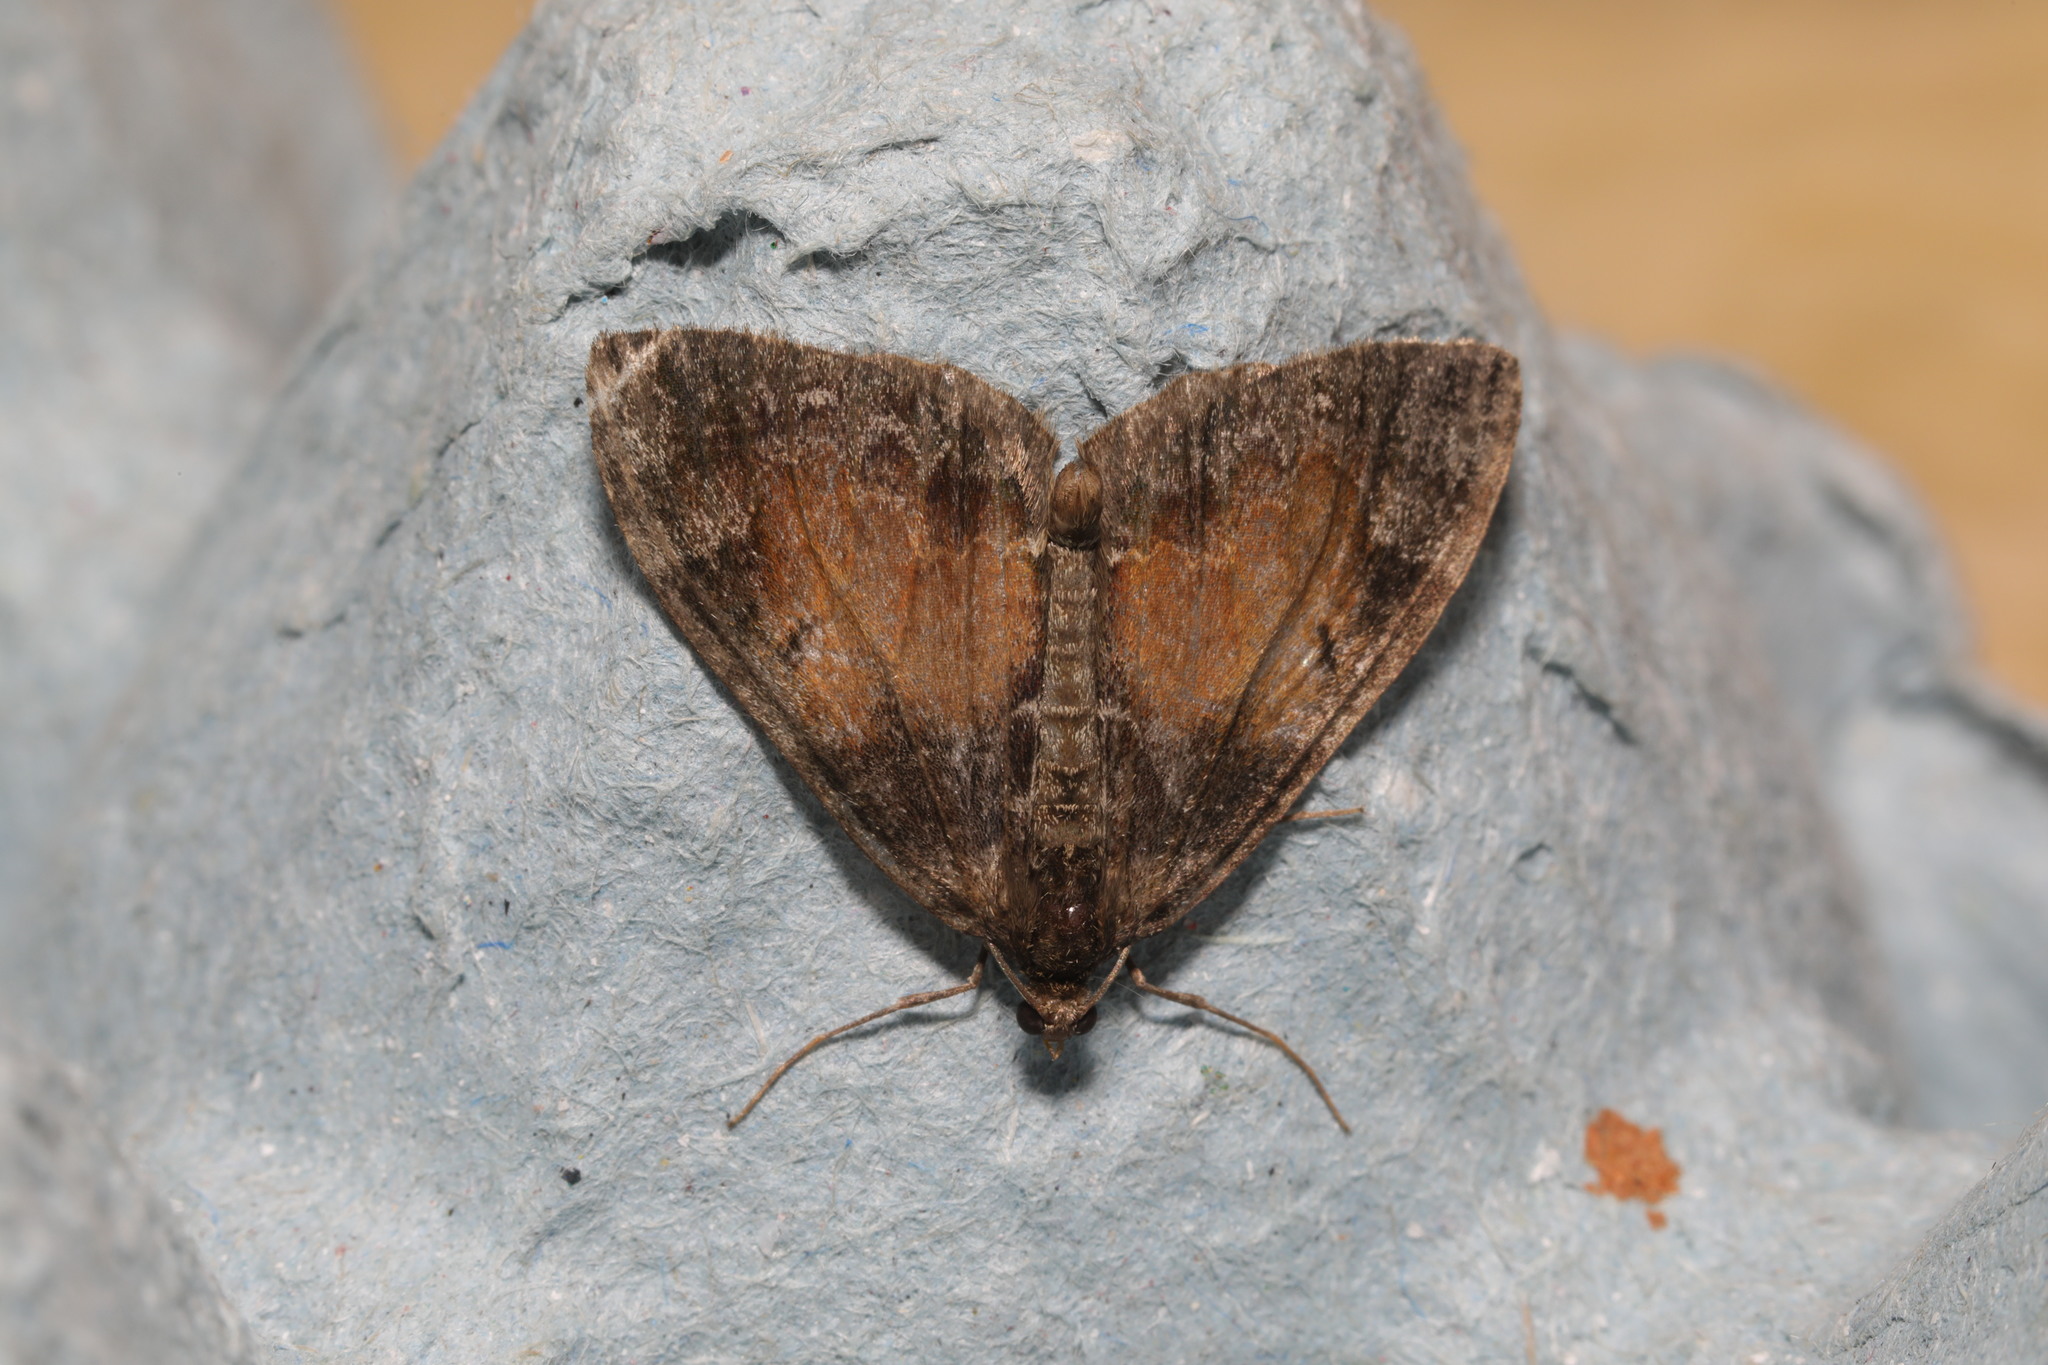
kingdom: Animalia
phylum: Arthropoda
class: Insecta
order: Lepidoptera
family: Geometridae
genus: Dysstroma
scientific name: Dysstroma truncata
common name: Common marbled carpet
